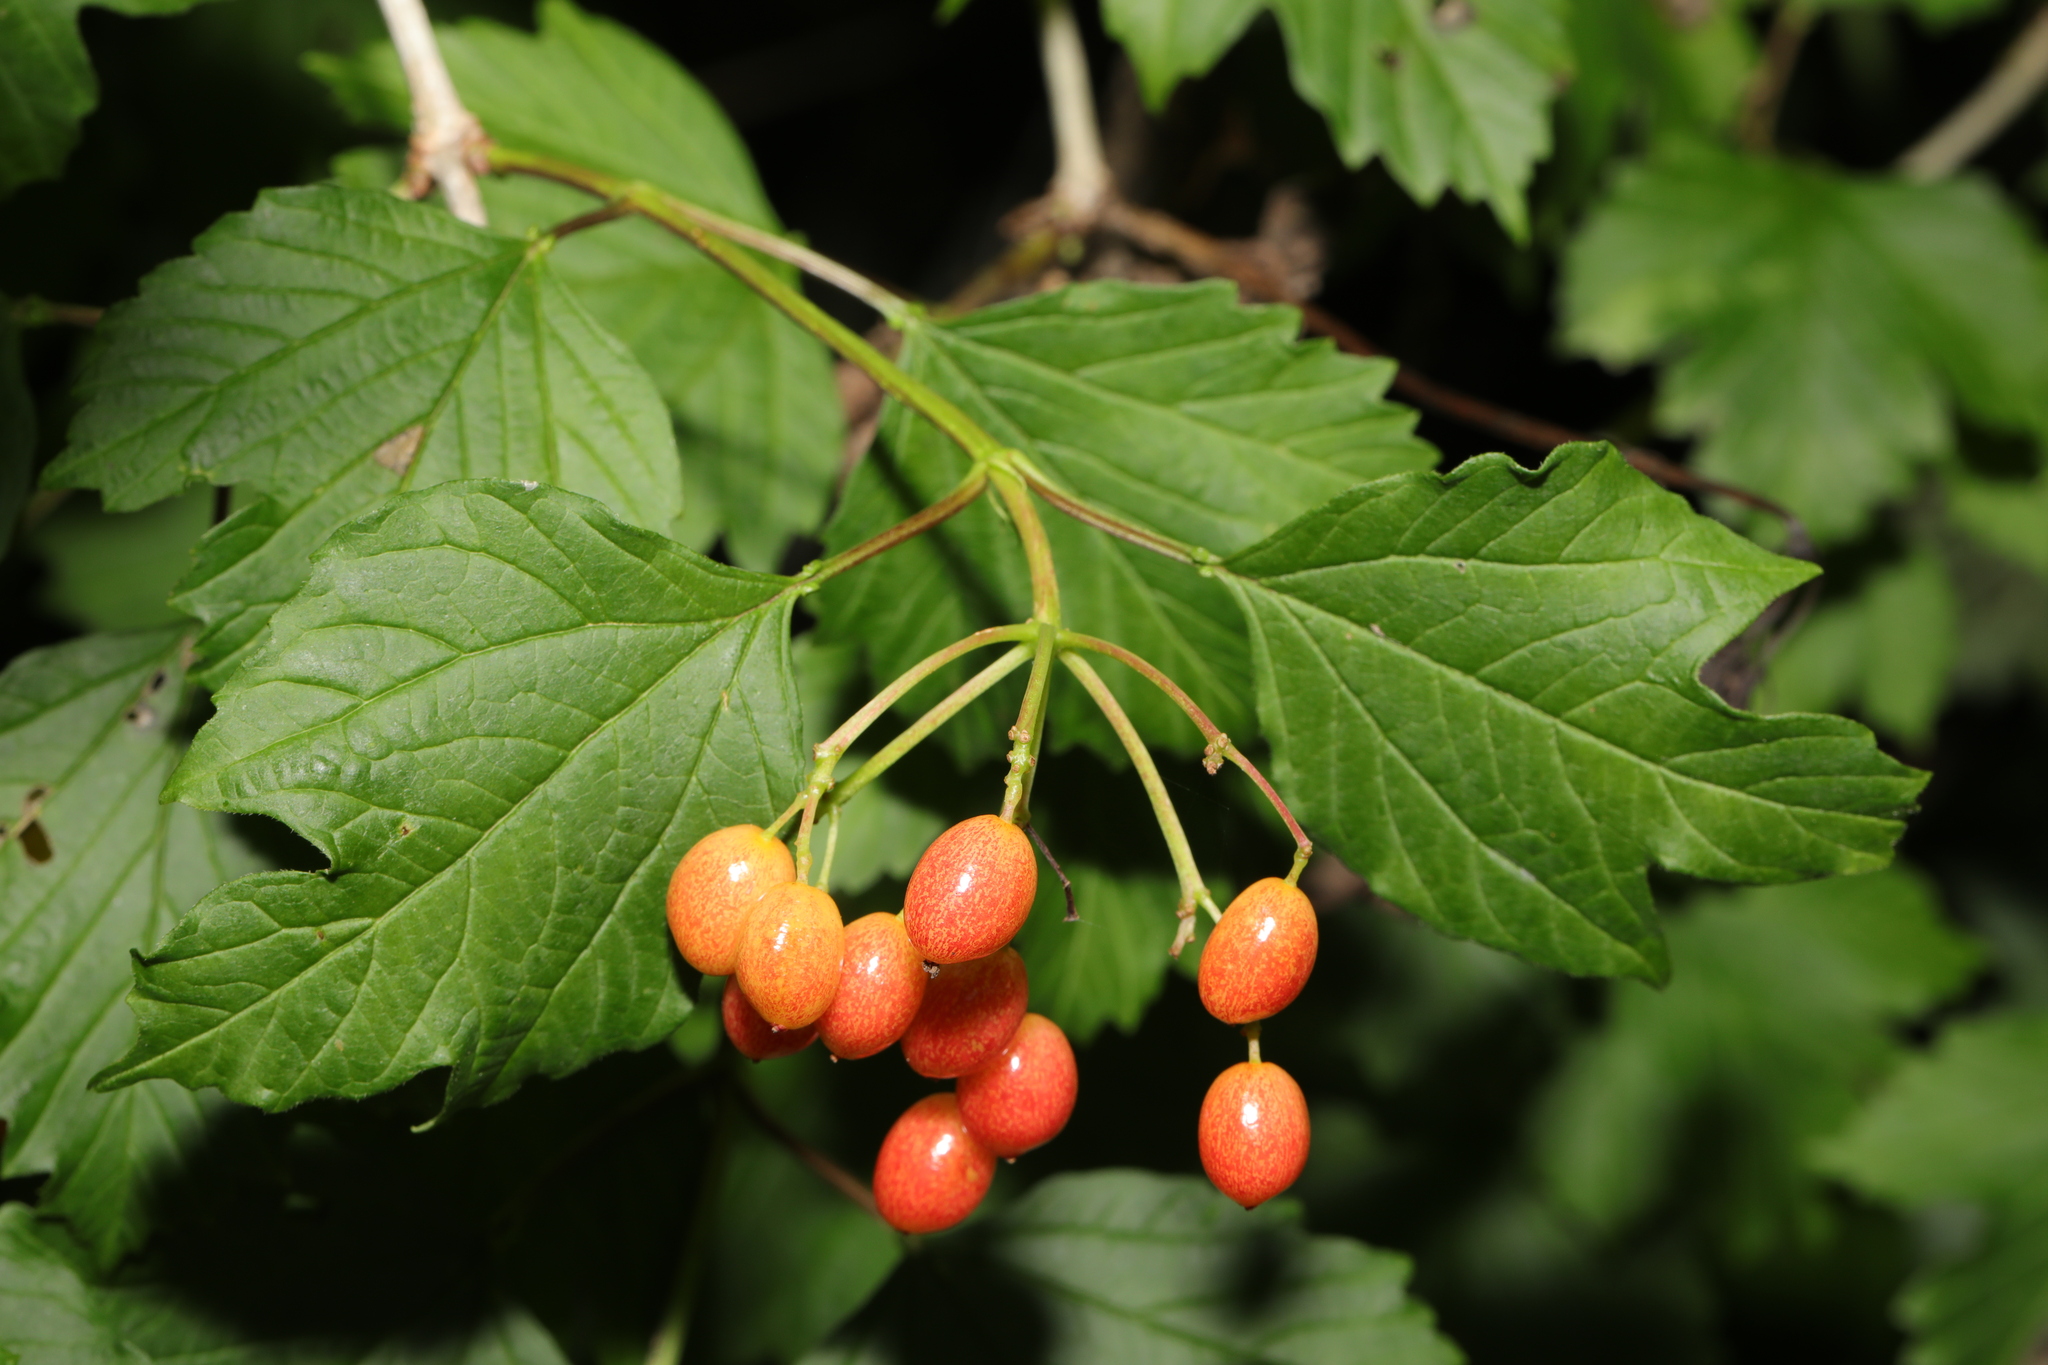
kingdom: Plantae
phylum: Tracheophyta
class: Magnoliopsida
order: Dipsacales
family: Viburnaceae
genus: Viburnum
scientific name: Viburnum opulus
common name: Guelder-rose
